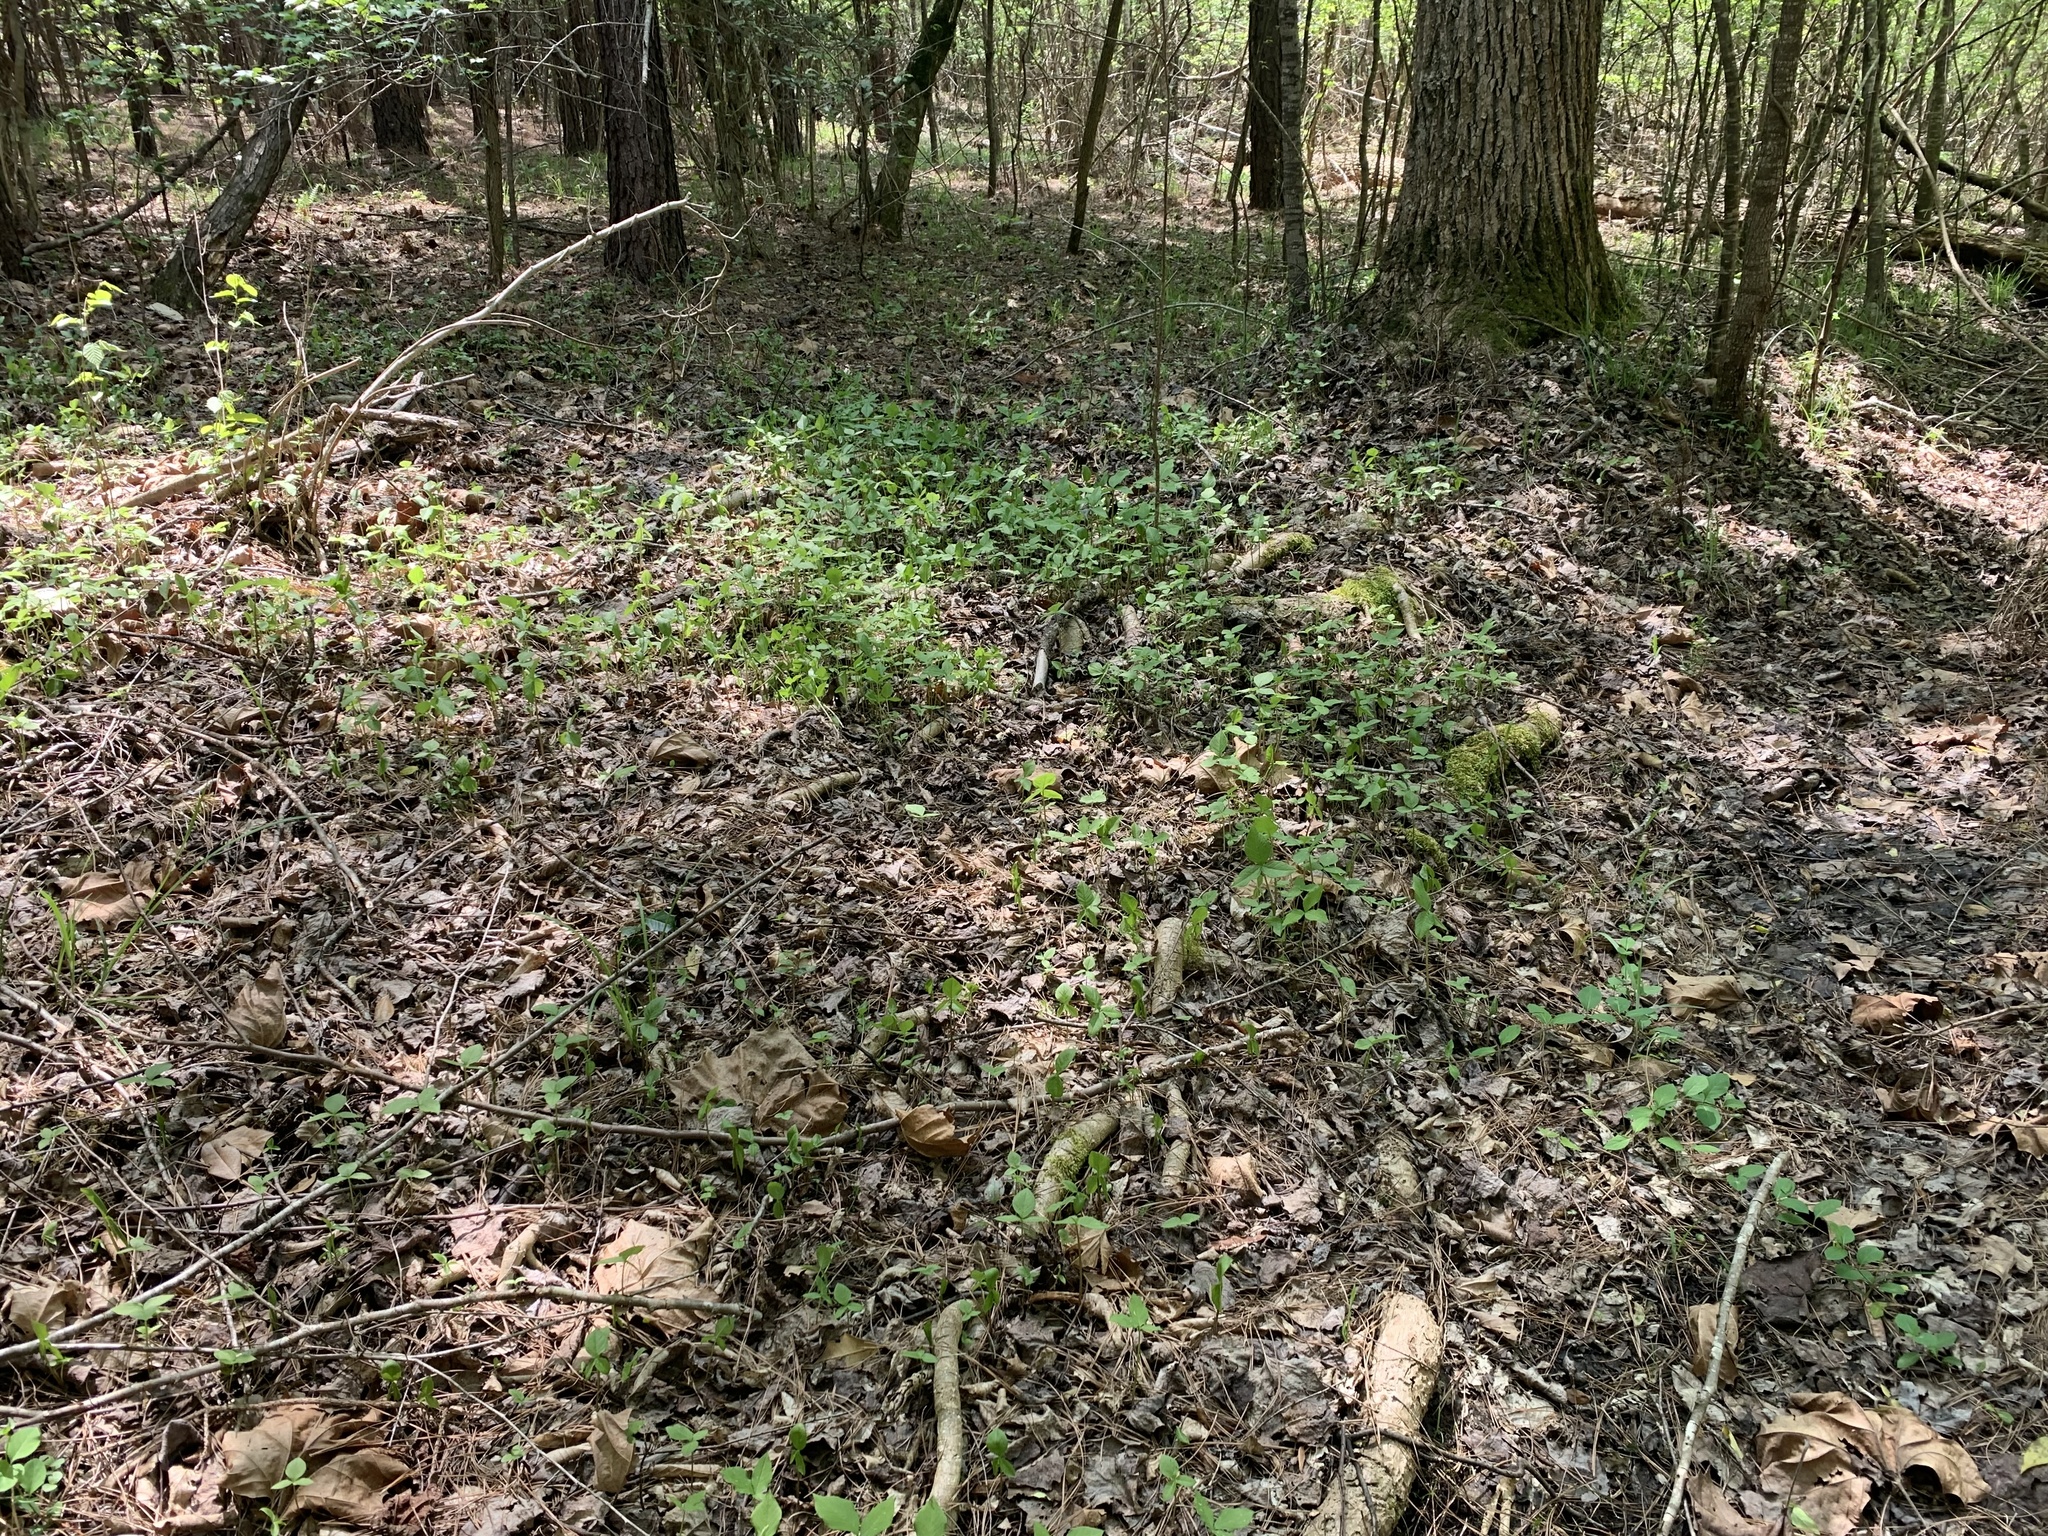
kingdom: Plantae
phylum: Tracheophyta
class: Liliopsida
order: Alismatales
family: Araceae
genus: Arisaema
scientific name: Arisaema triphyllum
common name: Jack-in-the-pulpit
